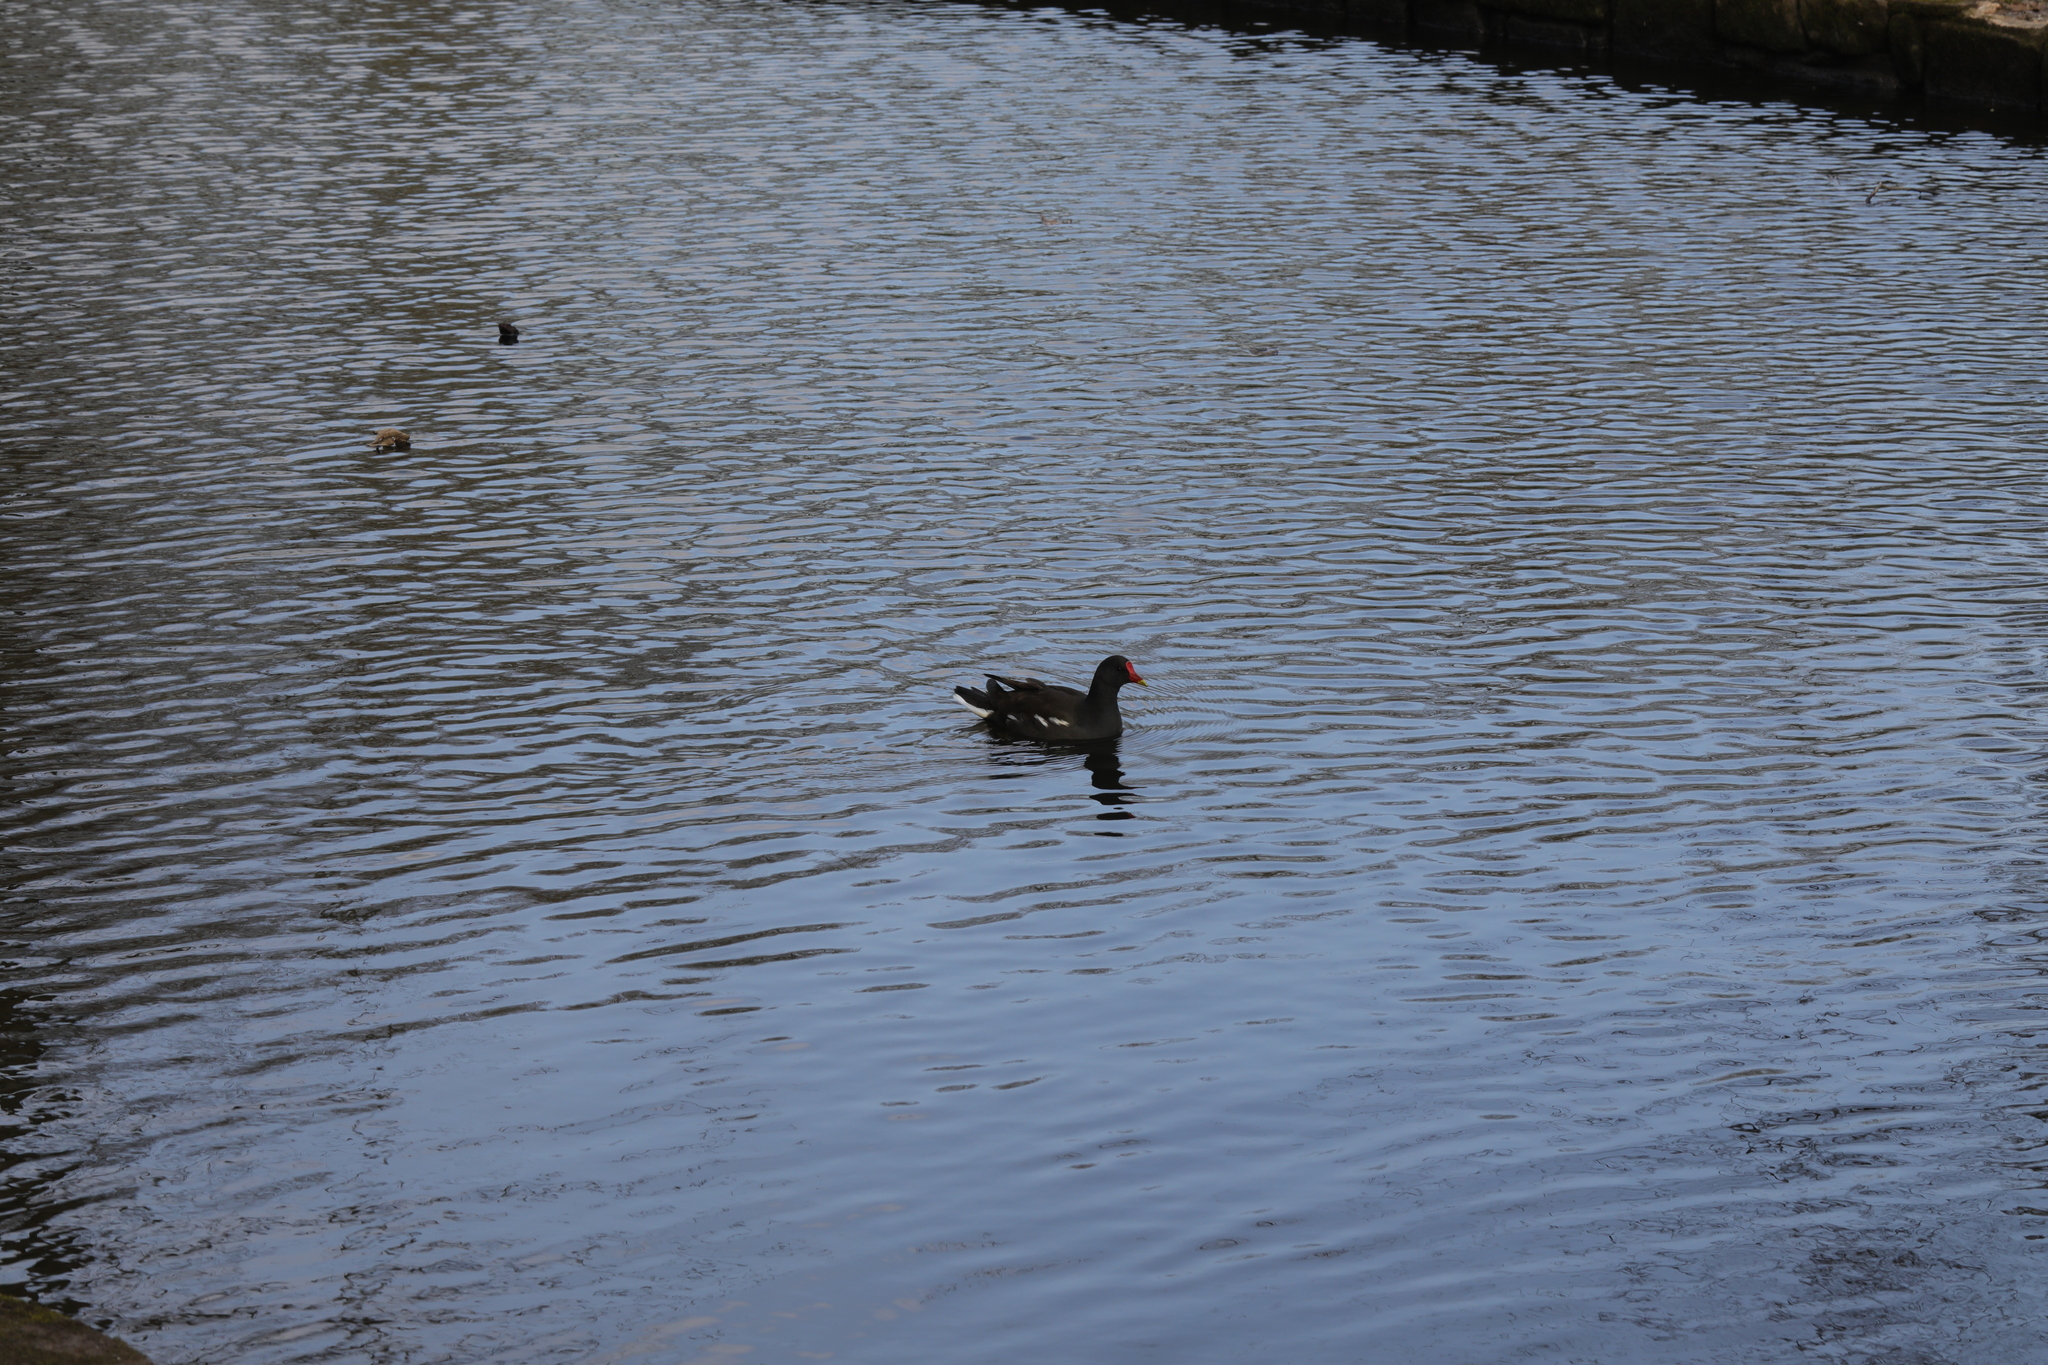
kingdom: Animalia
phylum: Chordata
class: Aves
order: Gruiformes
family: Rallidae
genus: Gallinula
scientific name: Gallinula chloropus
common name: Common moorhen
